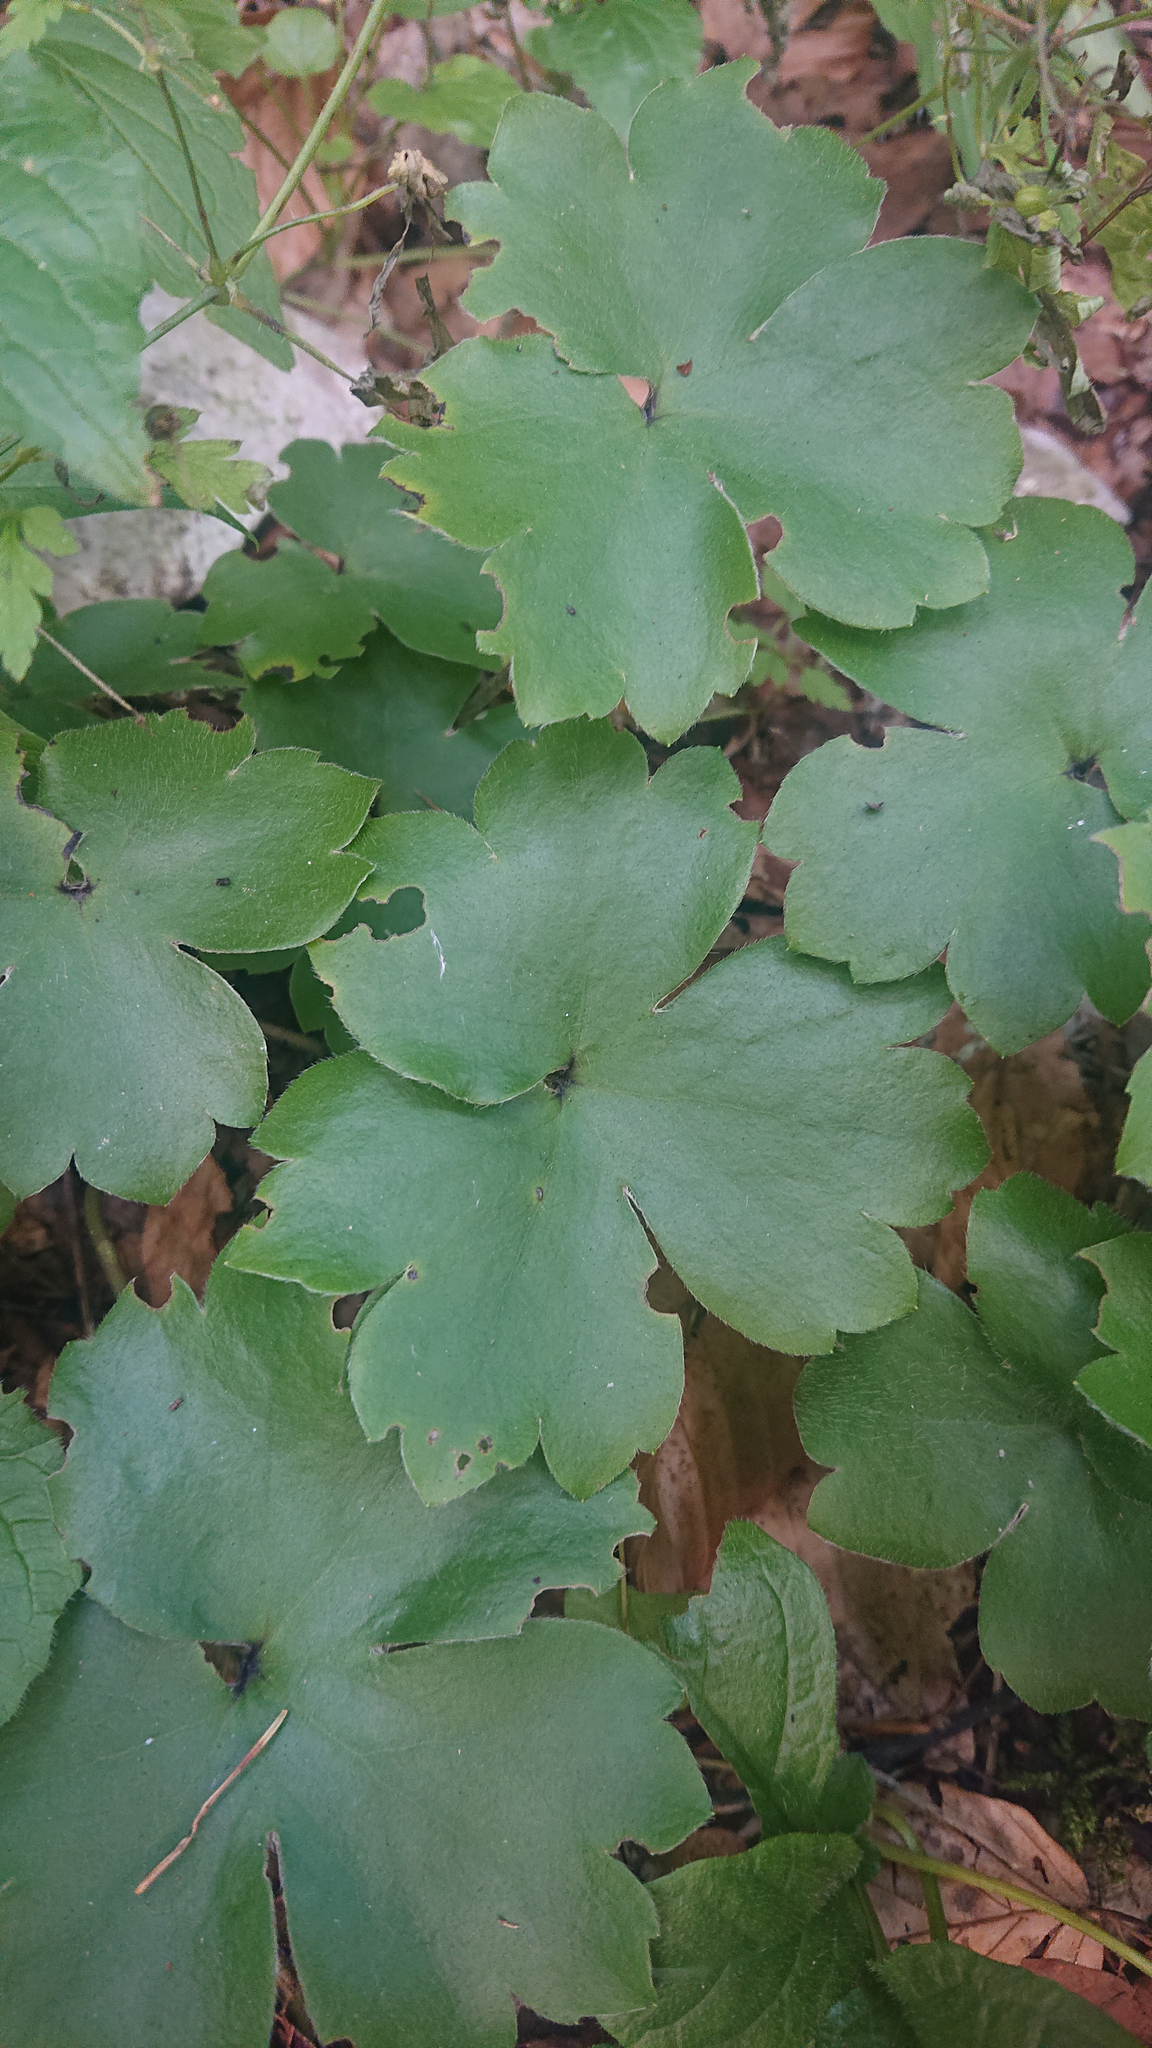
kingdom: Plantae
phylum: Tracheophyta
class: Magnoliopsida
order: Ranunculales
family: Ranunculaceae
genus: Hepatica
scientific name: Hepatica transsilvanica
